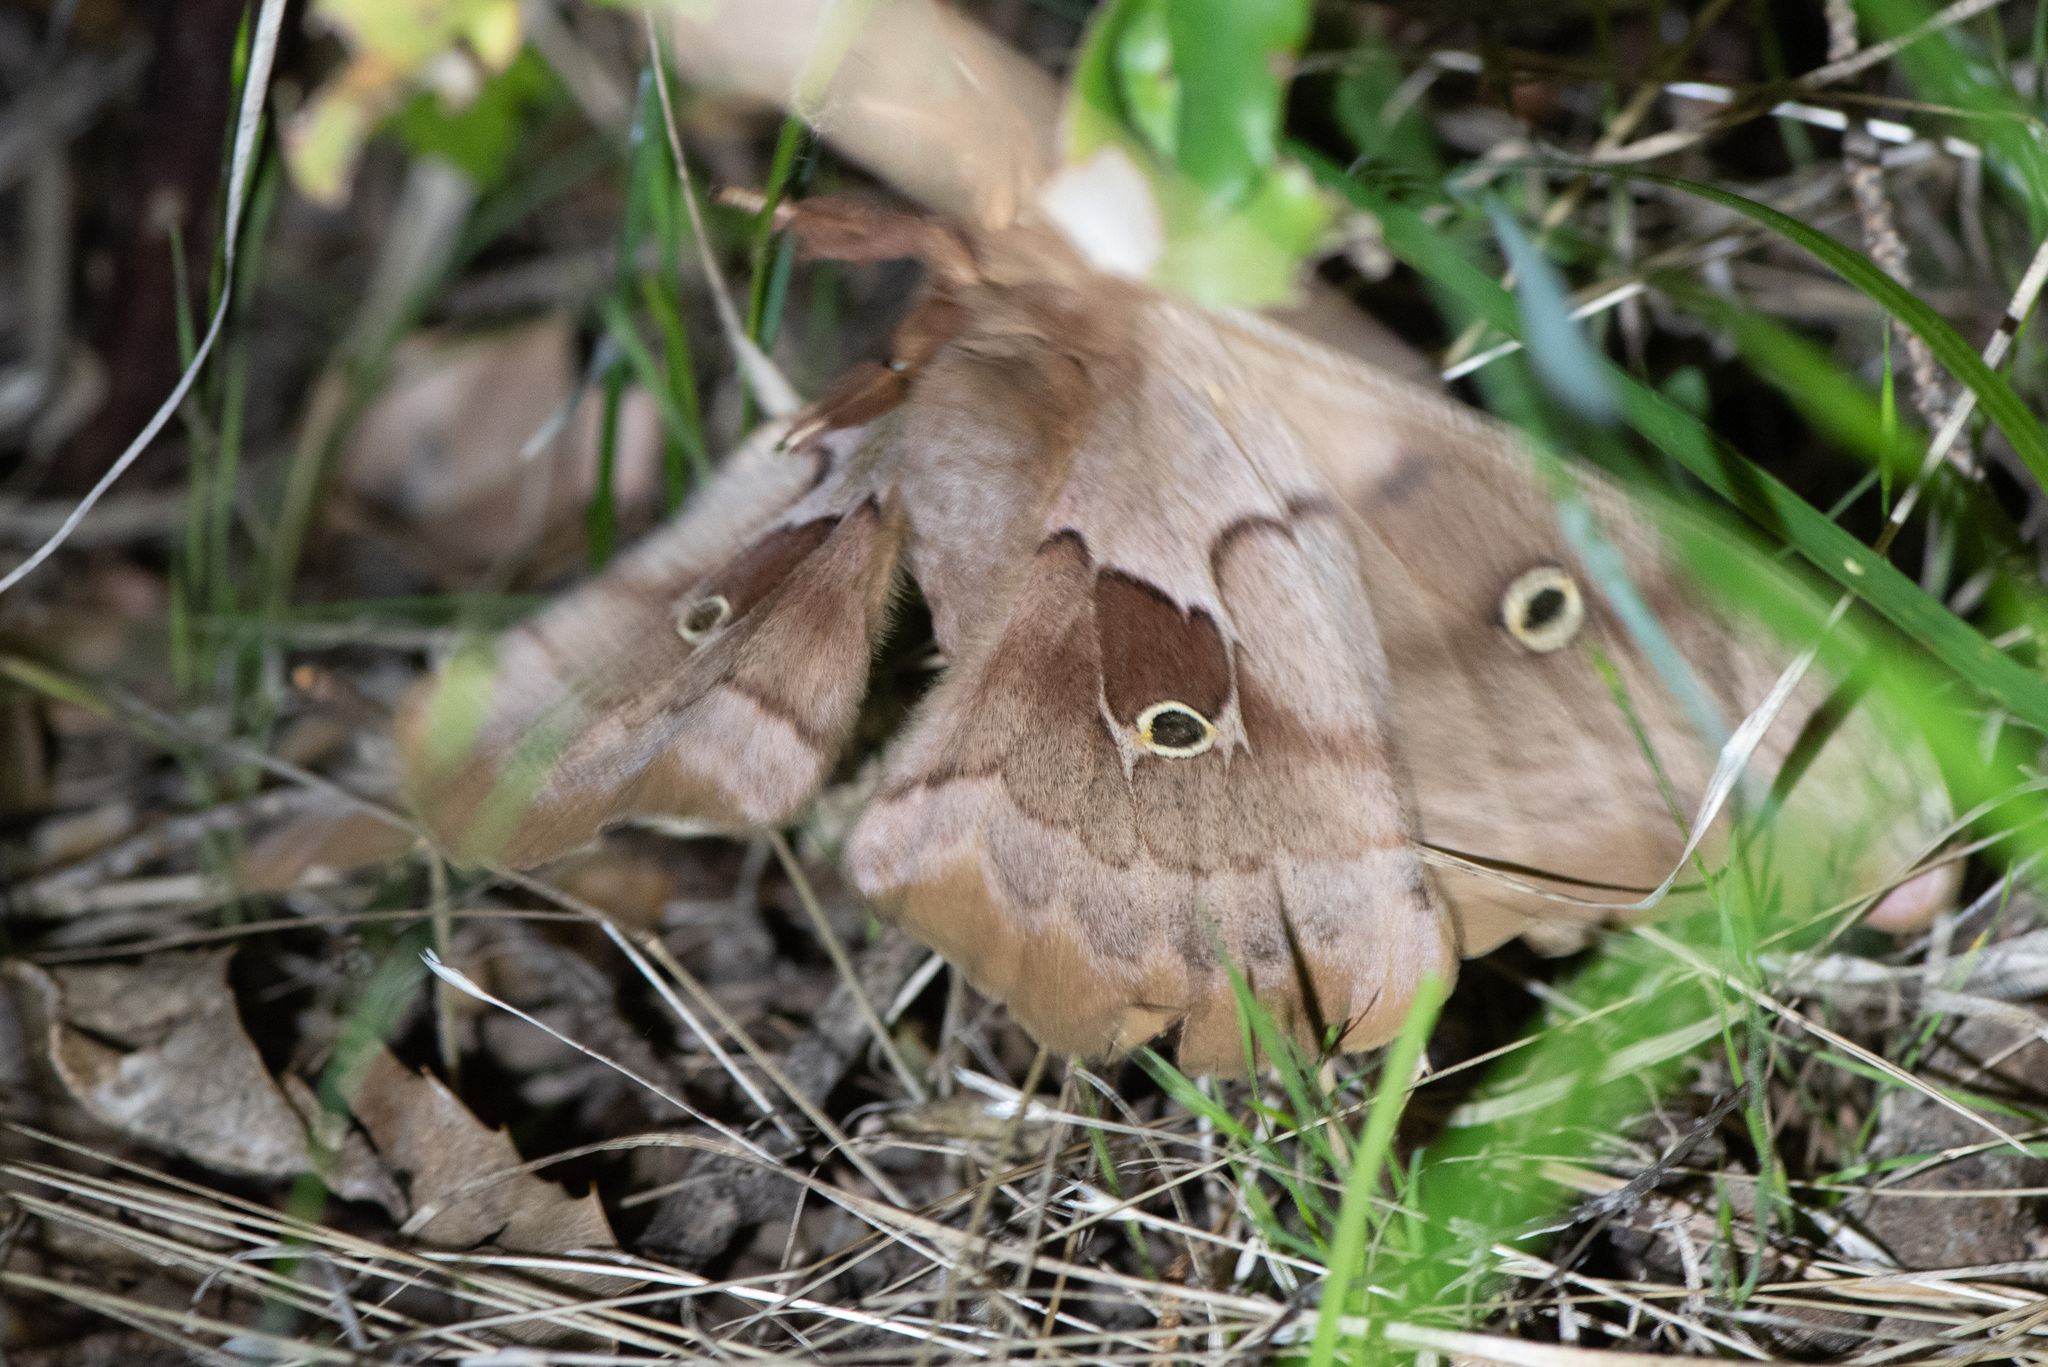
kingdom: Animalia
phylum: Arthropoda
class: Insecta
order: Lepidoptera
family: Saturniidae
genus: Antheraea
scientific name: Antheraea polyphemus
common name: Polyphemus moth
